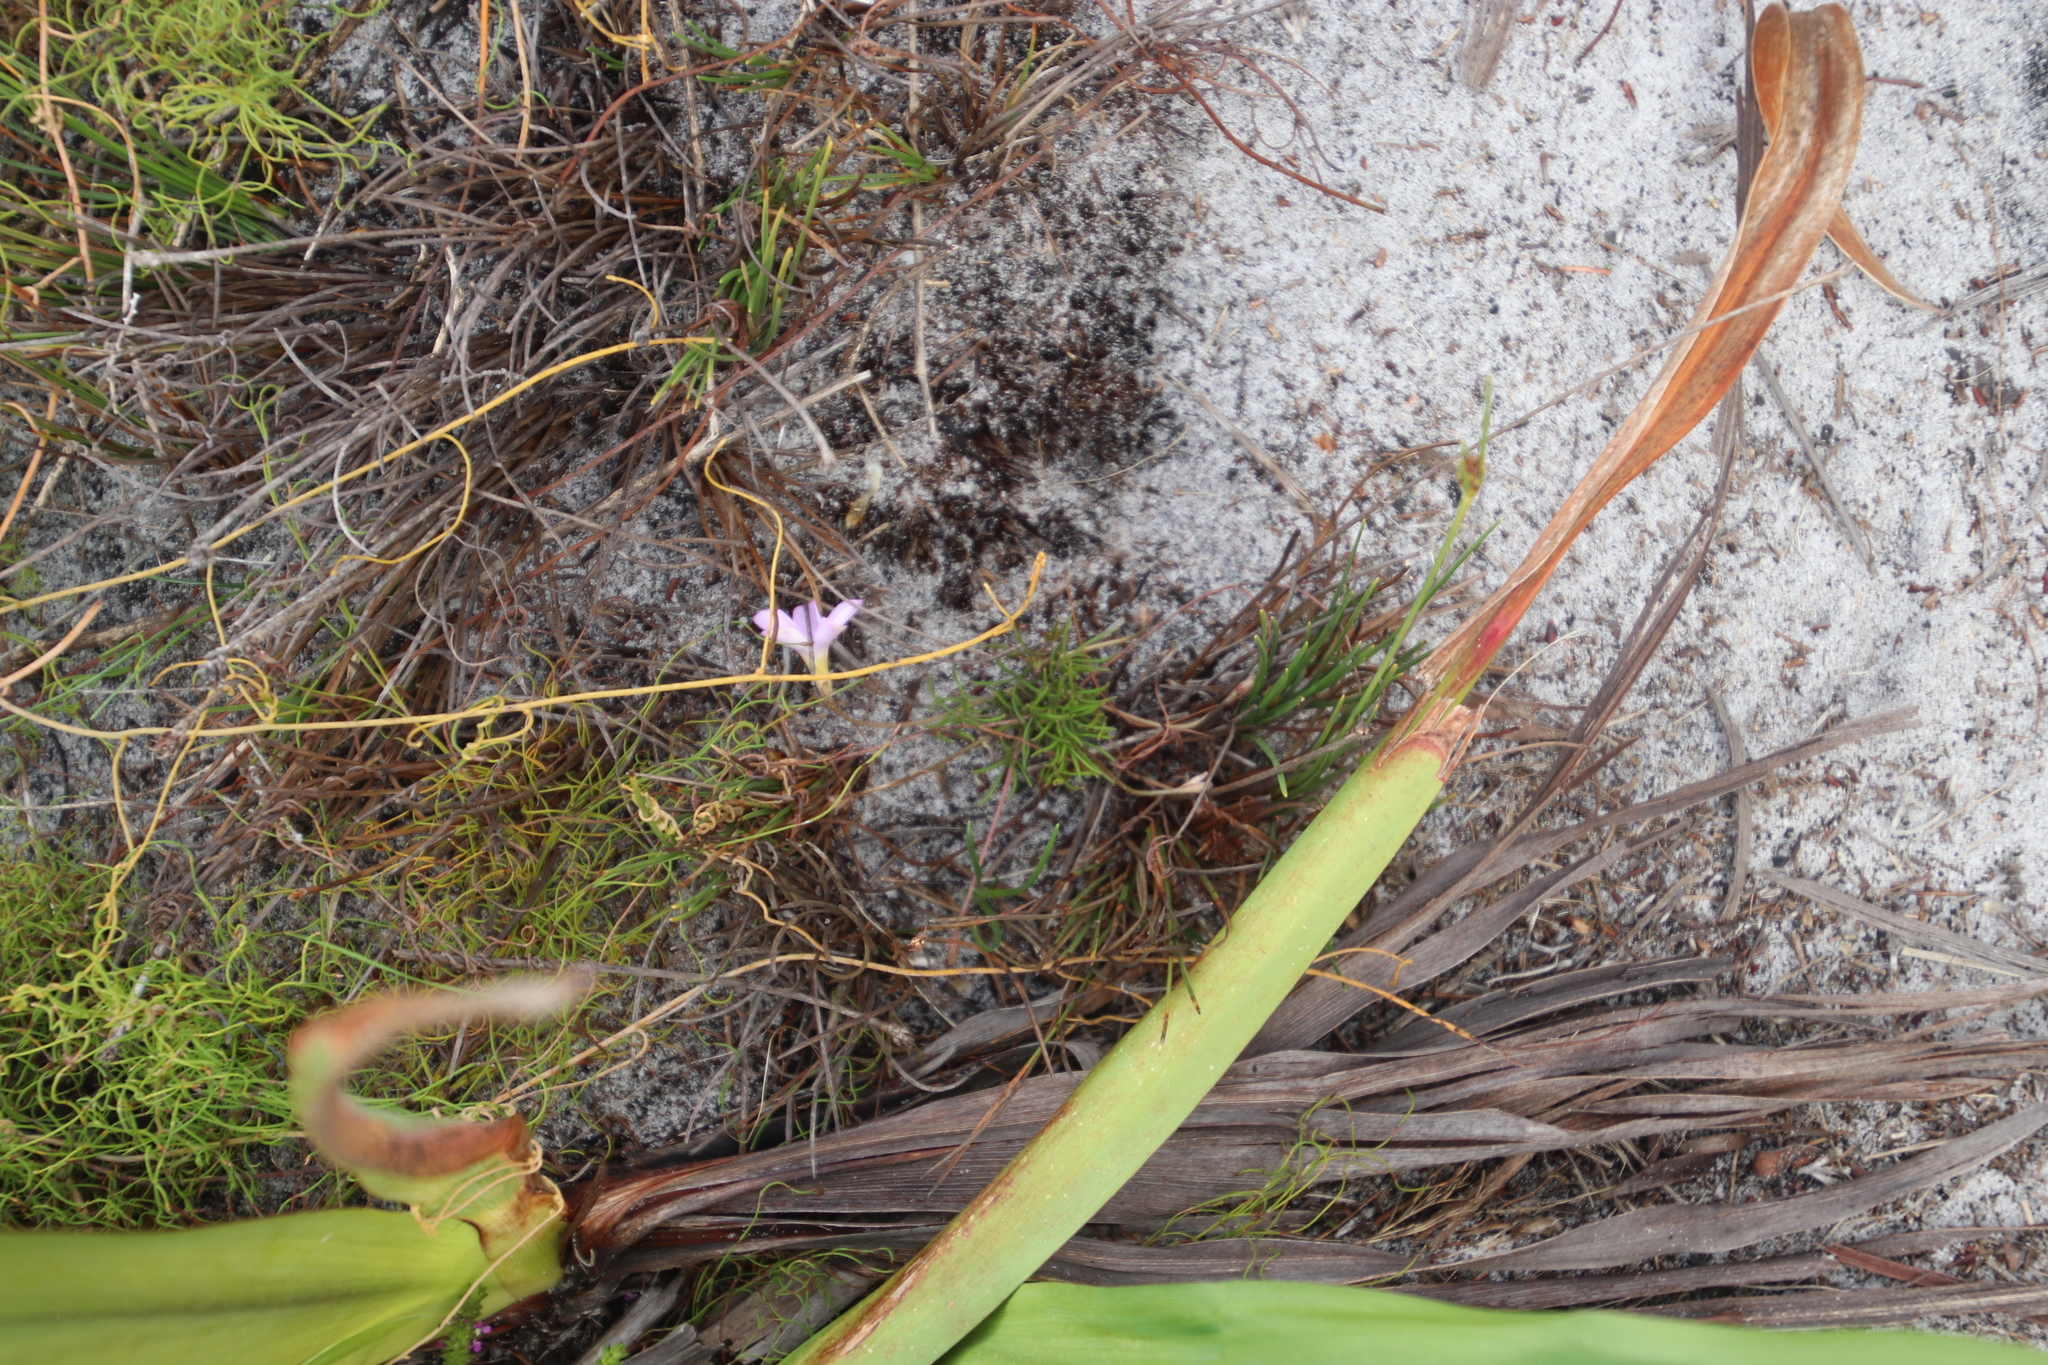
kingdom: Plantae
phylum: Tracheophyta
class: Magnoliopsida
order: Oxalidales
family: Oxalidaceae
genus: Oxalis
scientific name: Oxalis polyphylla
